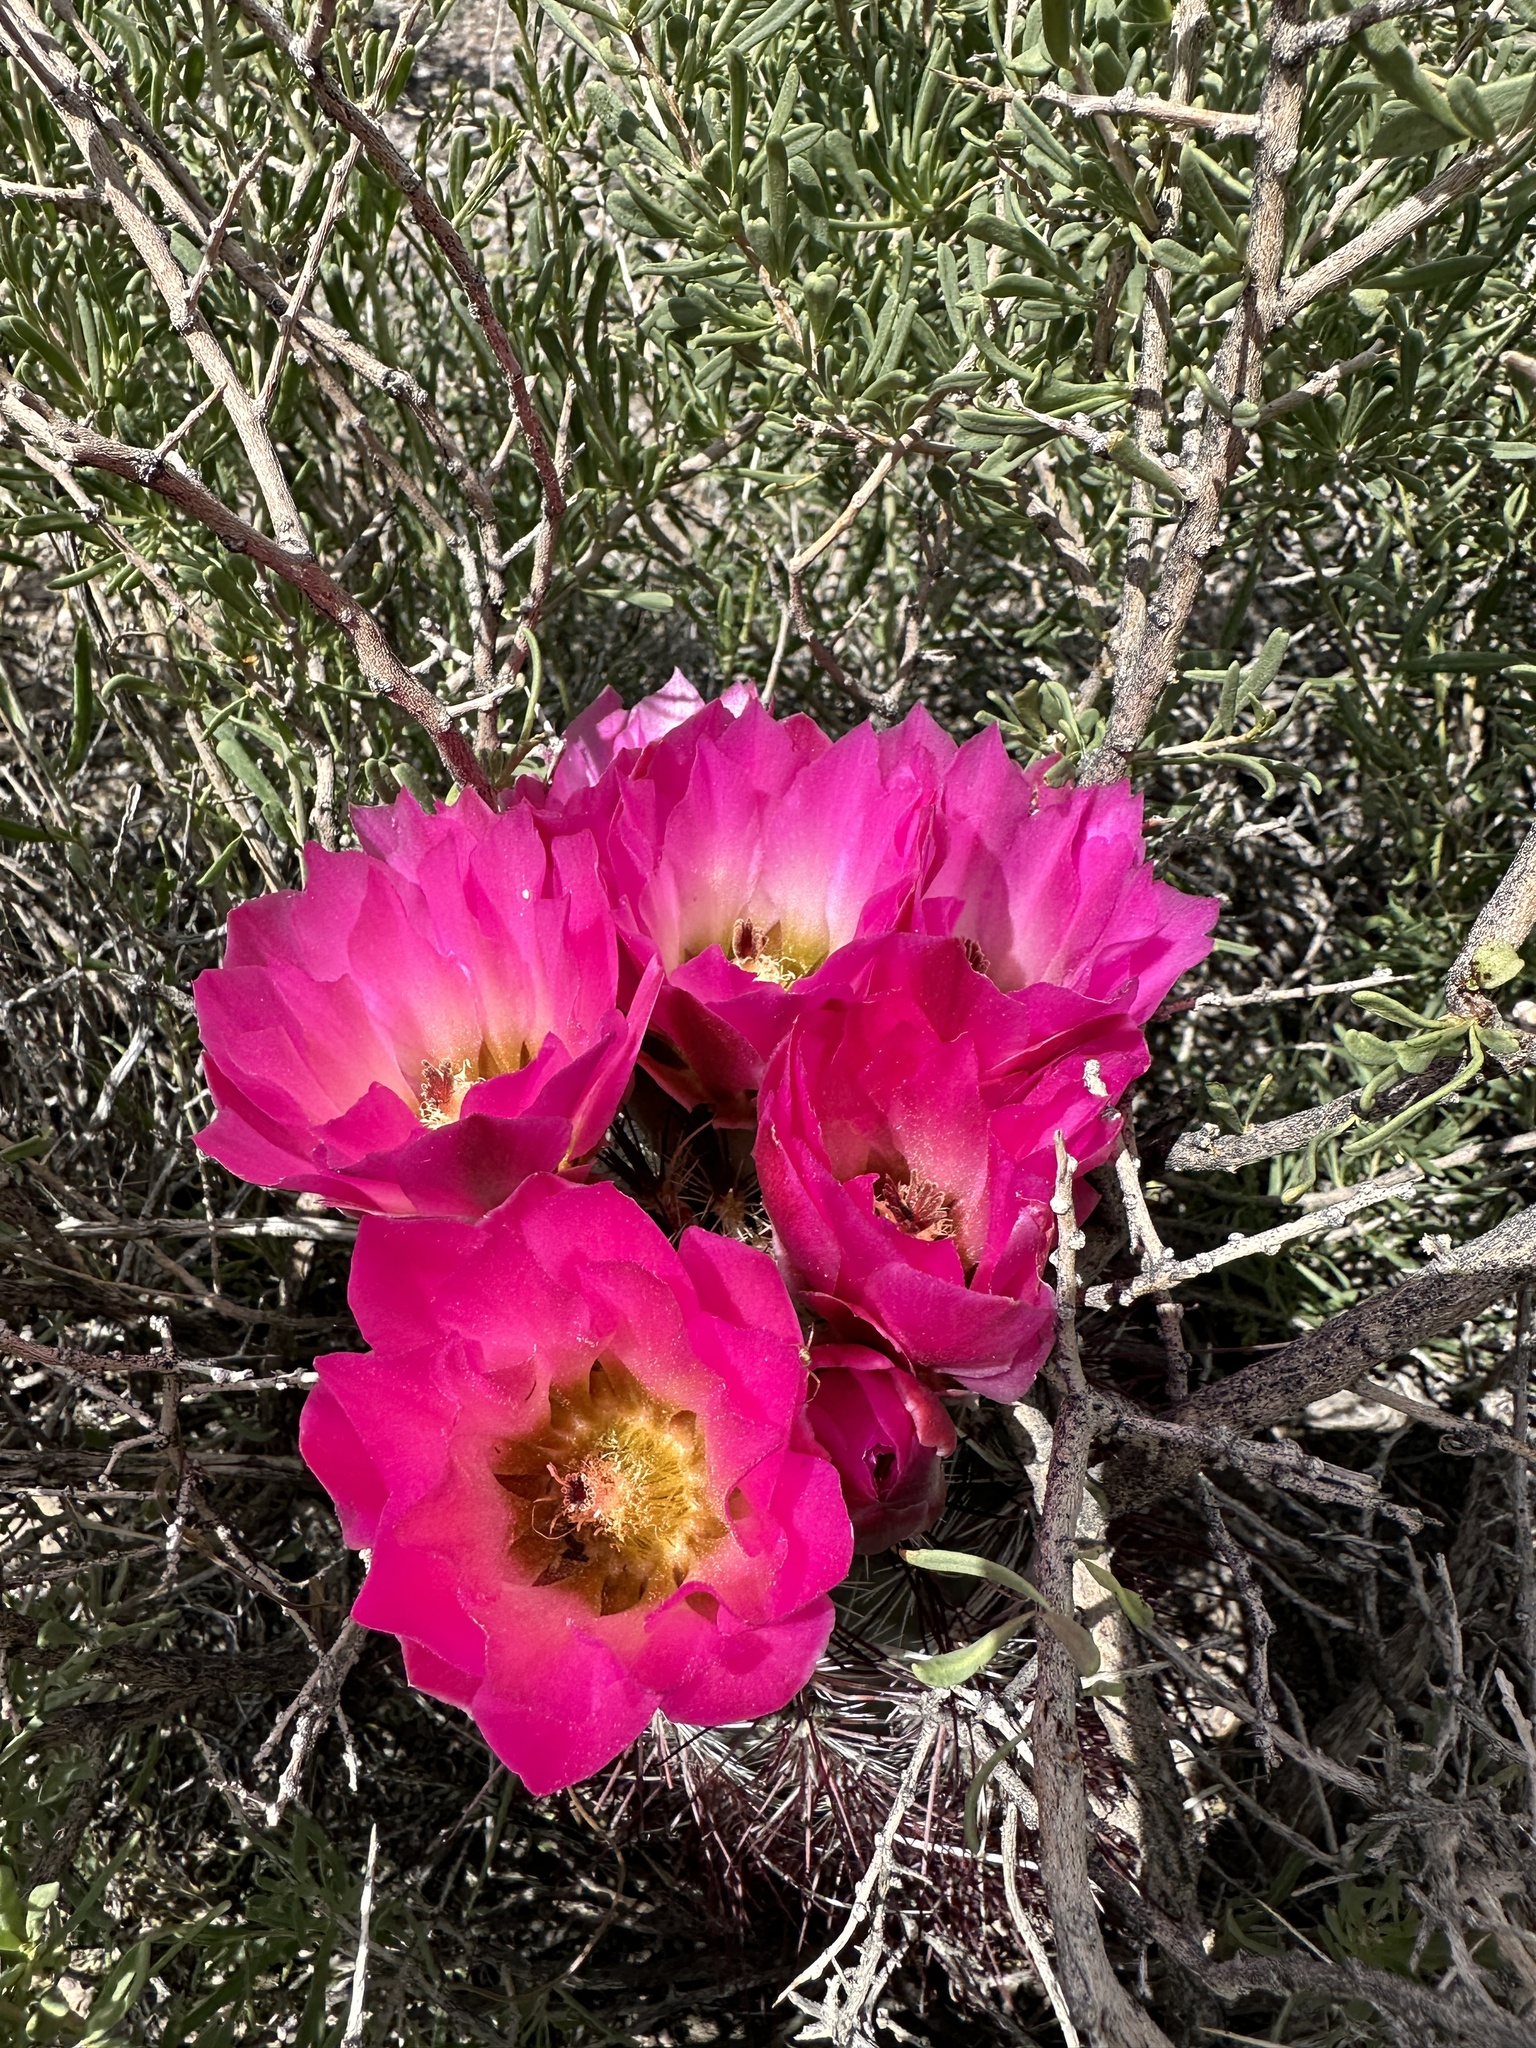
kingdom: Plantae
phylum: Tracheophyta
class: Magnoliopsida
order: Caryophyllales
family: Cactaceae
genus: Sclerocactus
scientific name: Sclerocactus polyancistrus
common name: Mohave fishhook cactus
